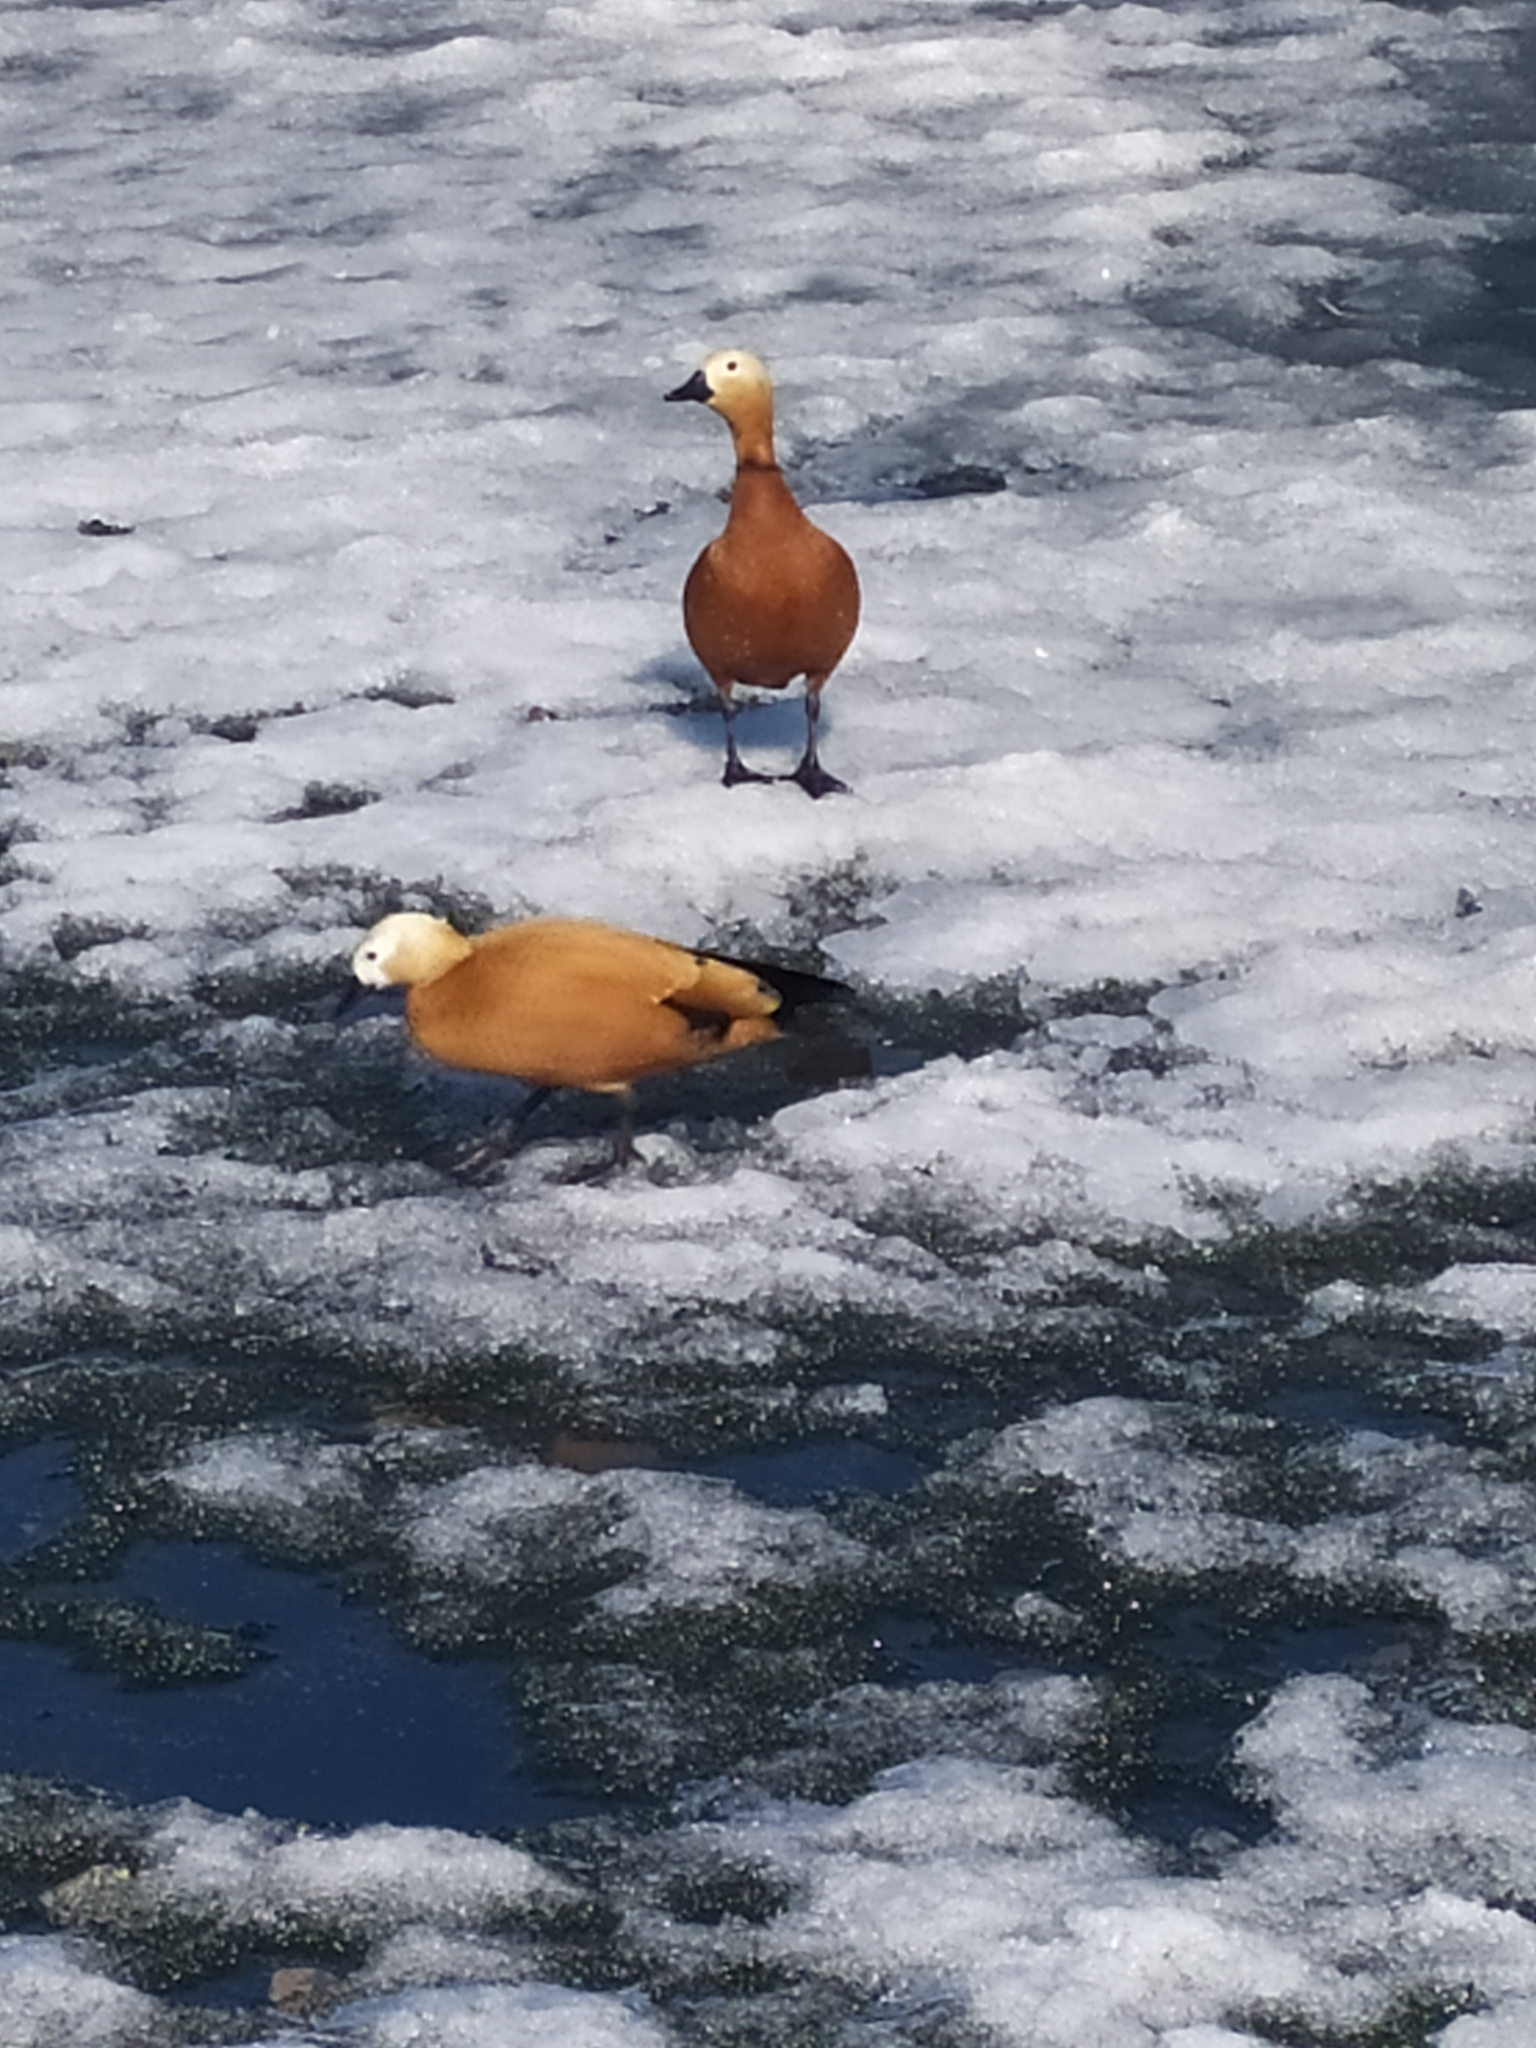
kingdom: Animalia
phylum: Chordata
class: Aves
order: Anseriformes
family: Anatidae
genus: Tadorna
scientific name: Tadorna ferruginea
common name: Ruddy shelduck
